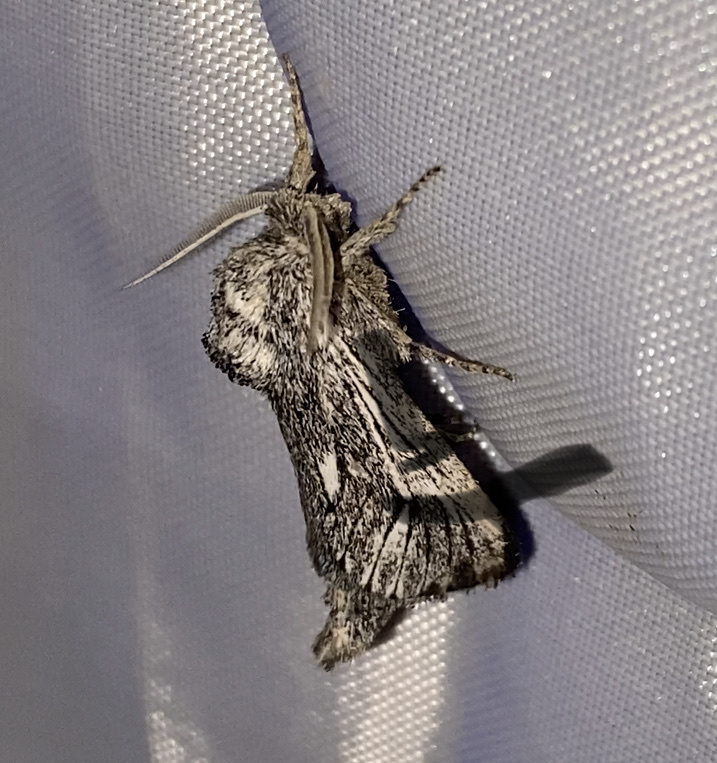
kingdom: Animalia
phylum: Arthropoda
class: Insecta
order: Lepidoptera
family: Cossidae
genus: Hypopta
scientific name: Hypopta palmata
